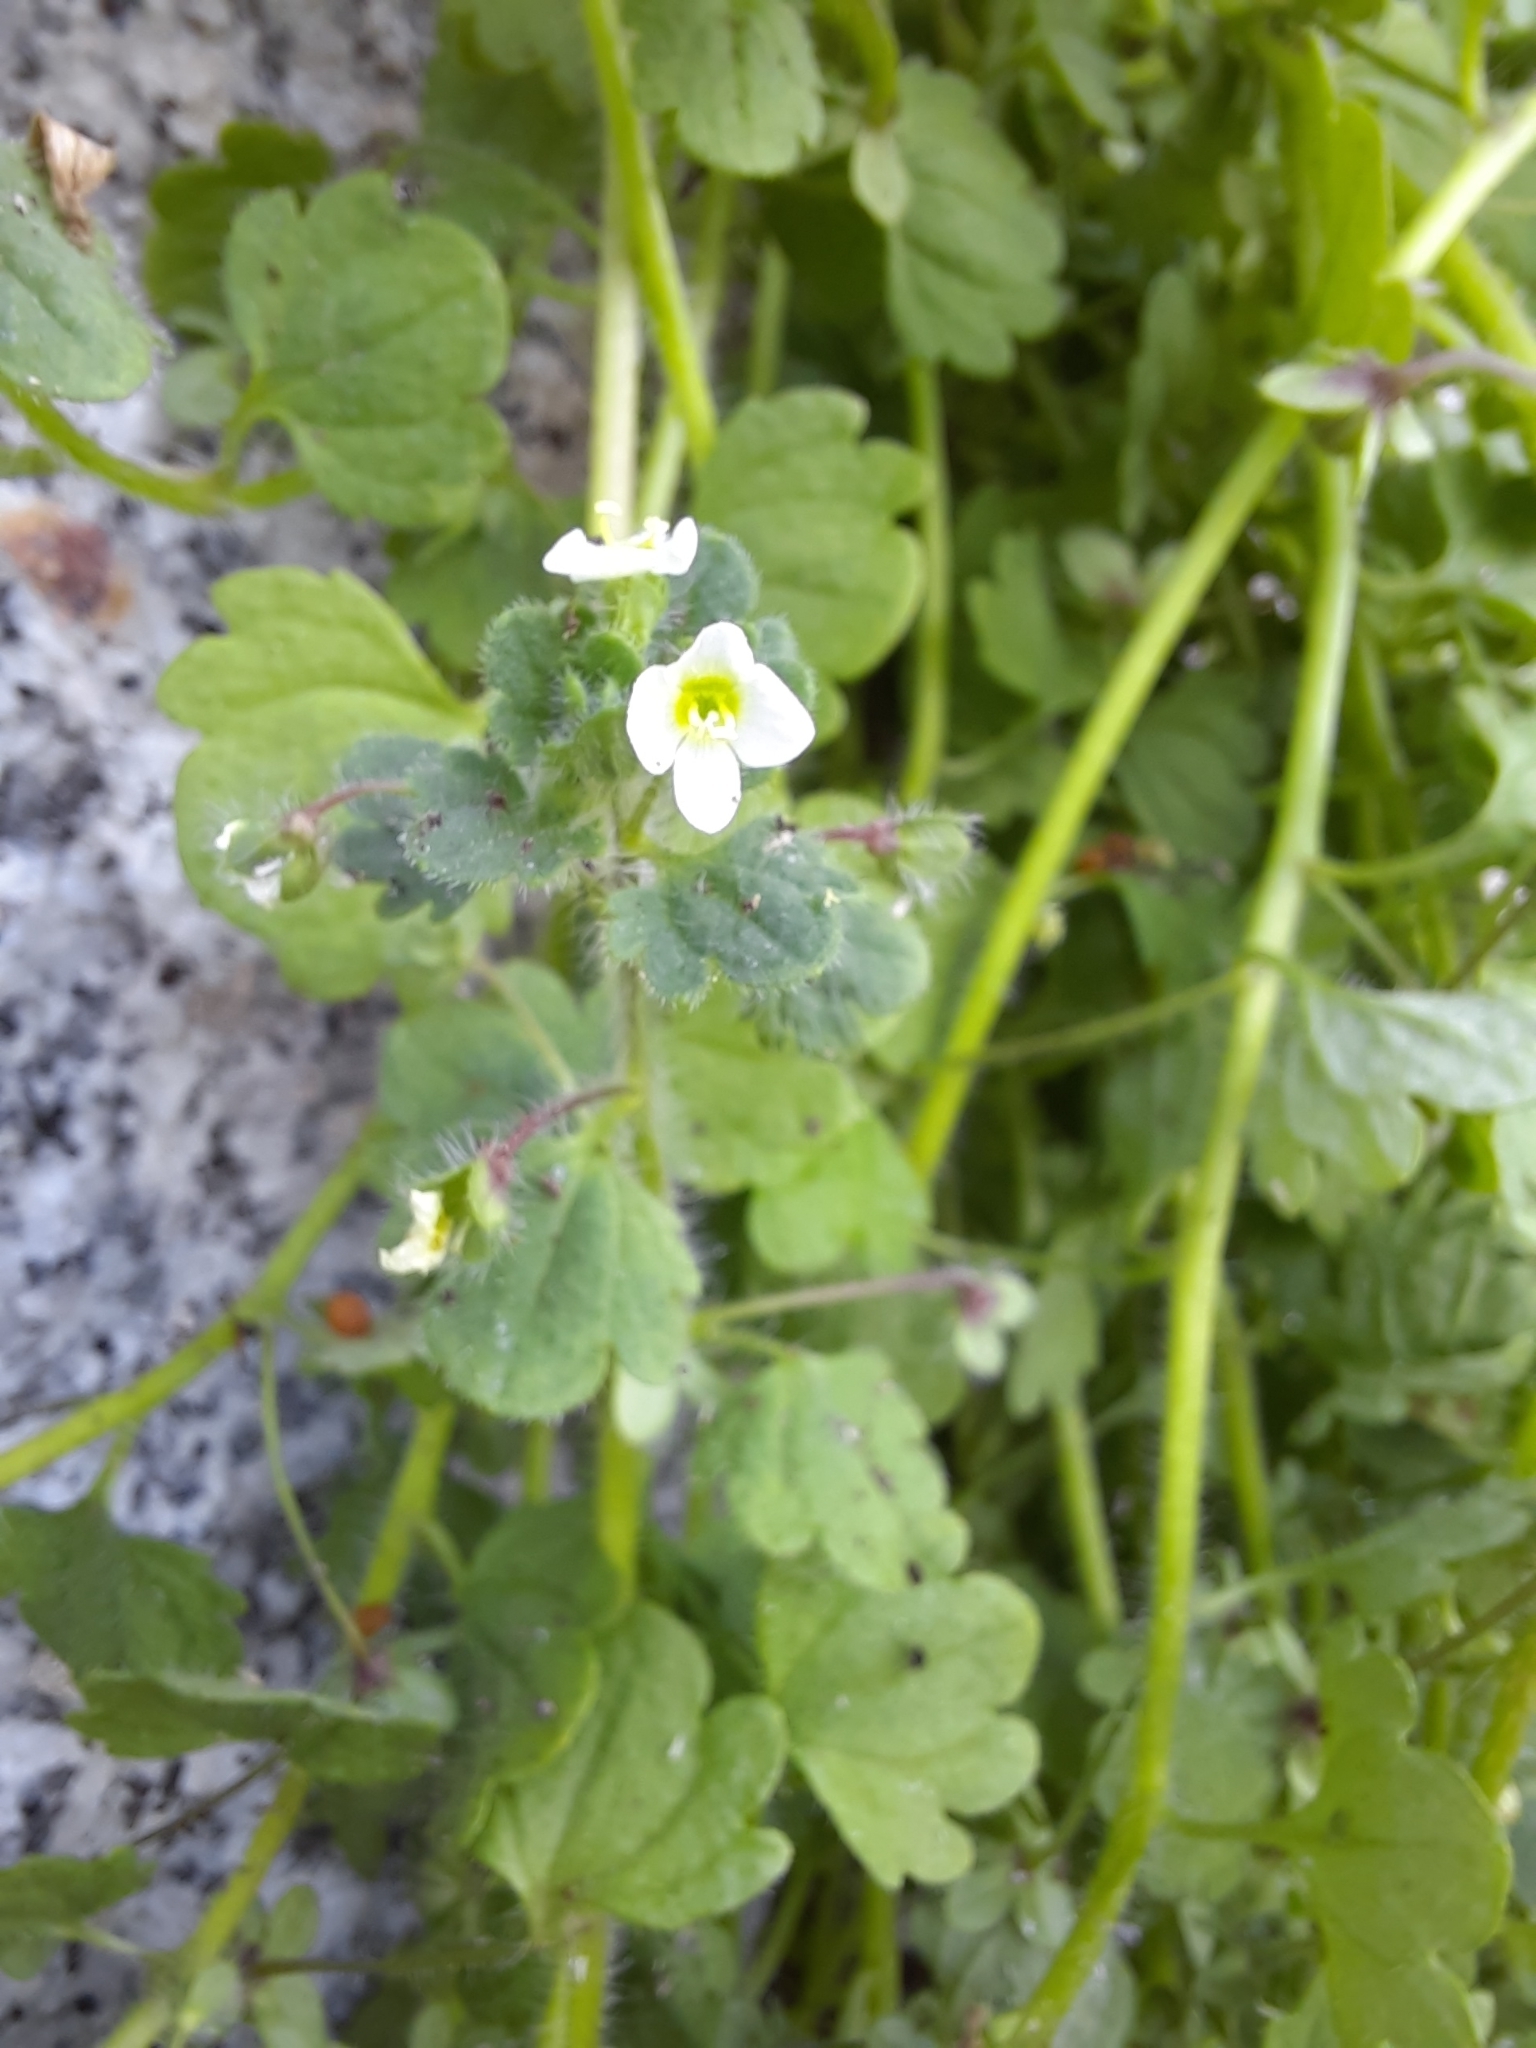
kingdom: Plantae
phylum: Tracheophyta
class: Magnoliopsida
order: Lamiales
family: Plantaginaceae
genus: Veronica
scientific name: Veronica cymbalaria
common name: Pale speedwell
